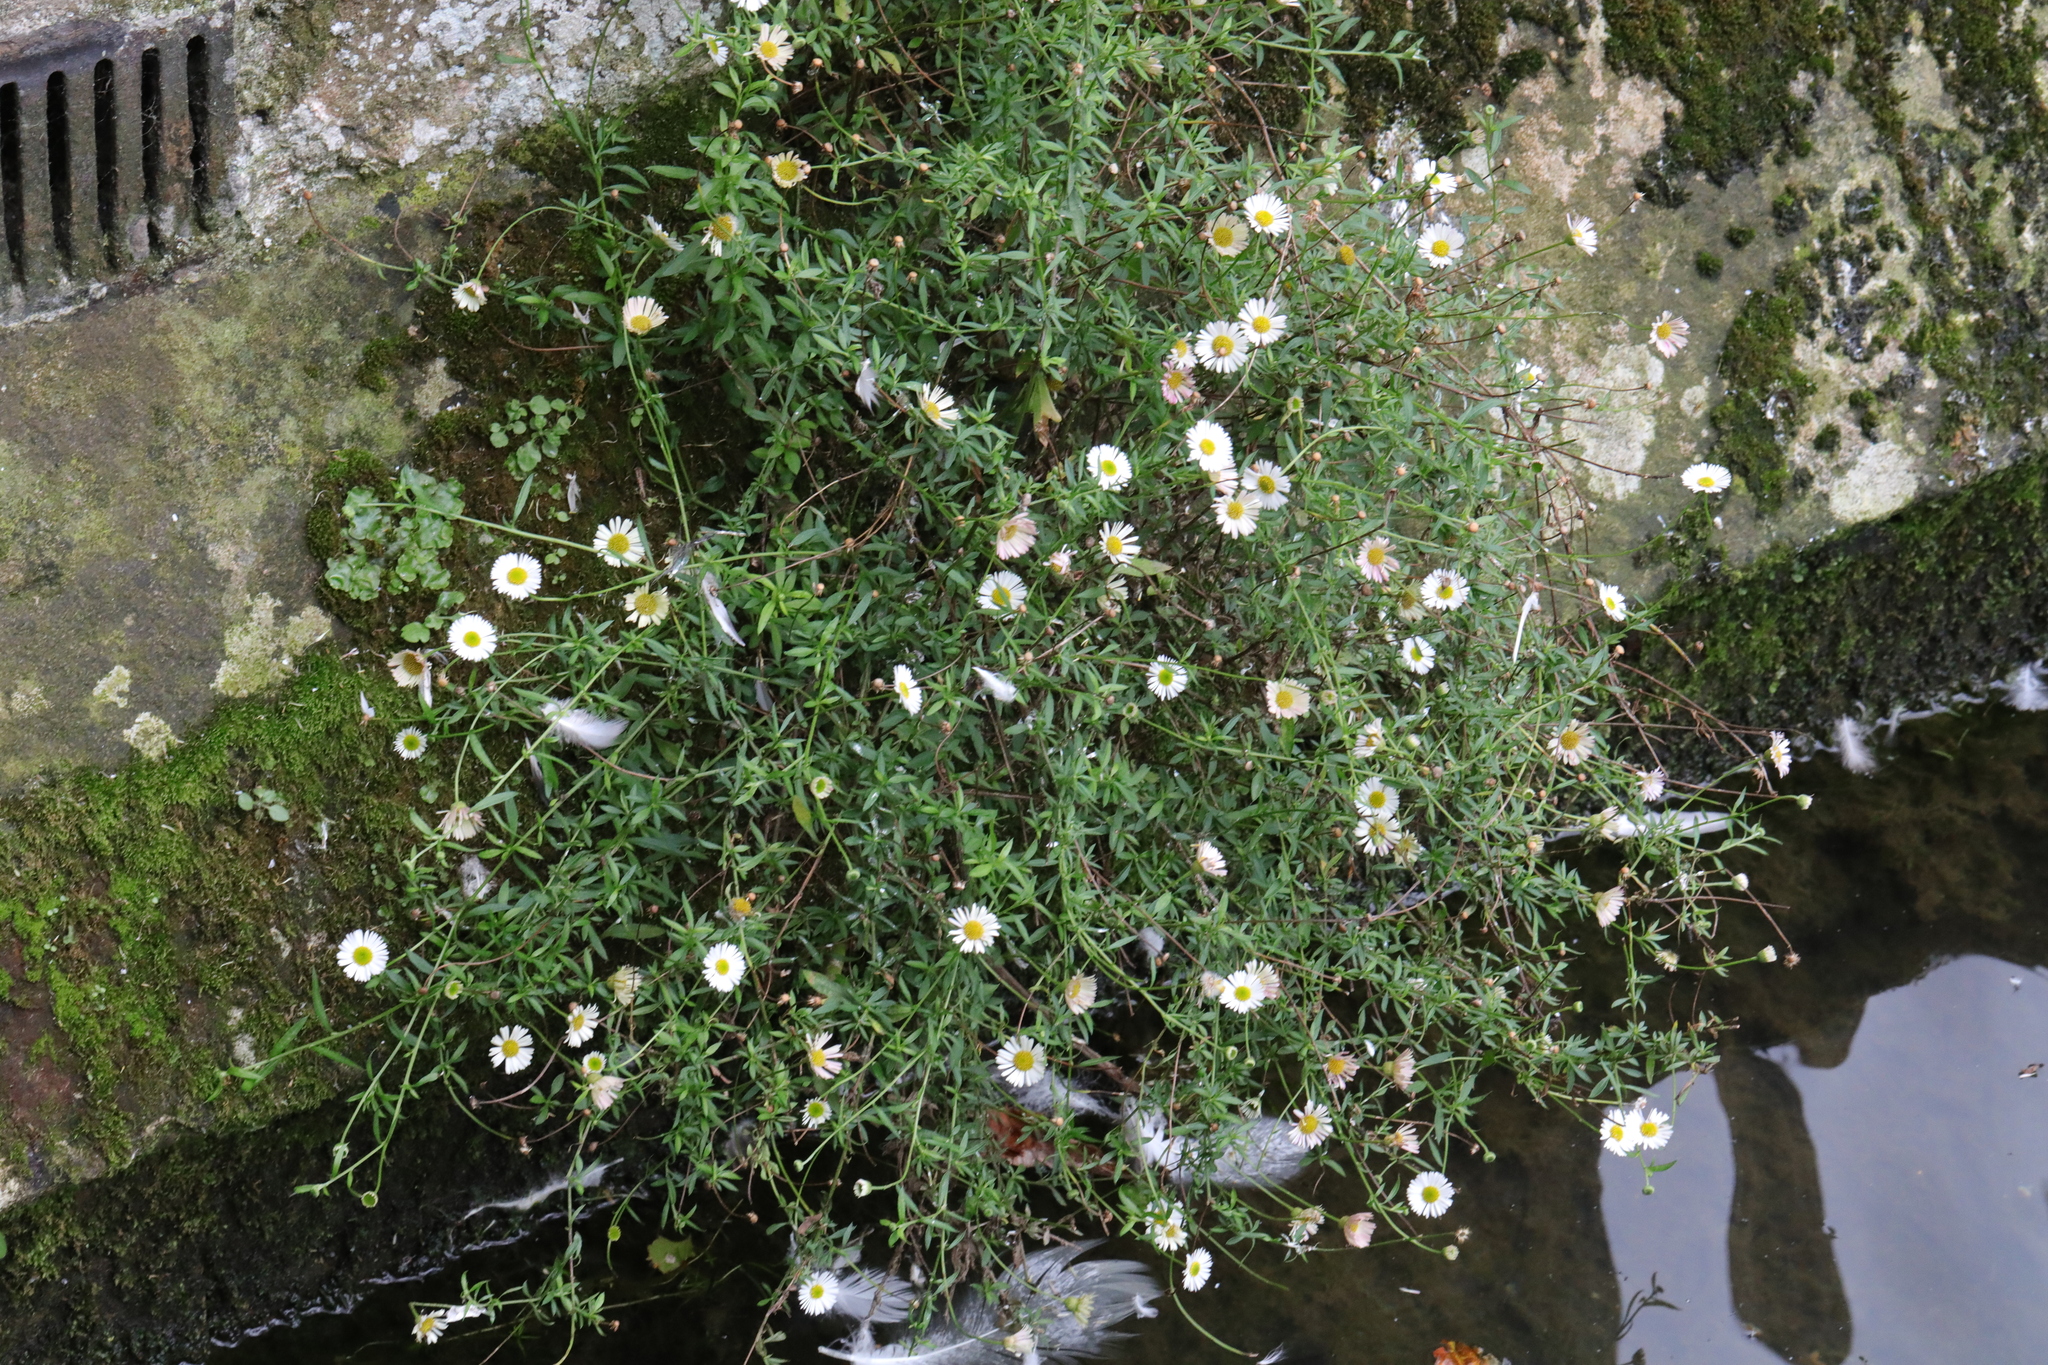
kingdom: Plantae
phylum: Tracheophyta
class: Magnoliopsida
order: Asterales
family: Asteraceae
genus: Erigeron
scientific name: Erigeron karvinskianus
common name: Mexican fleabane
